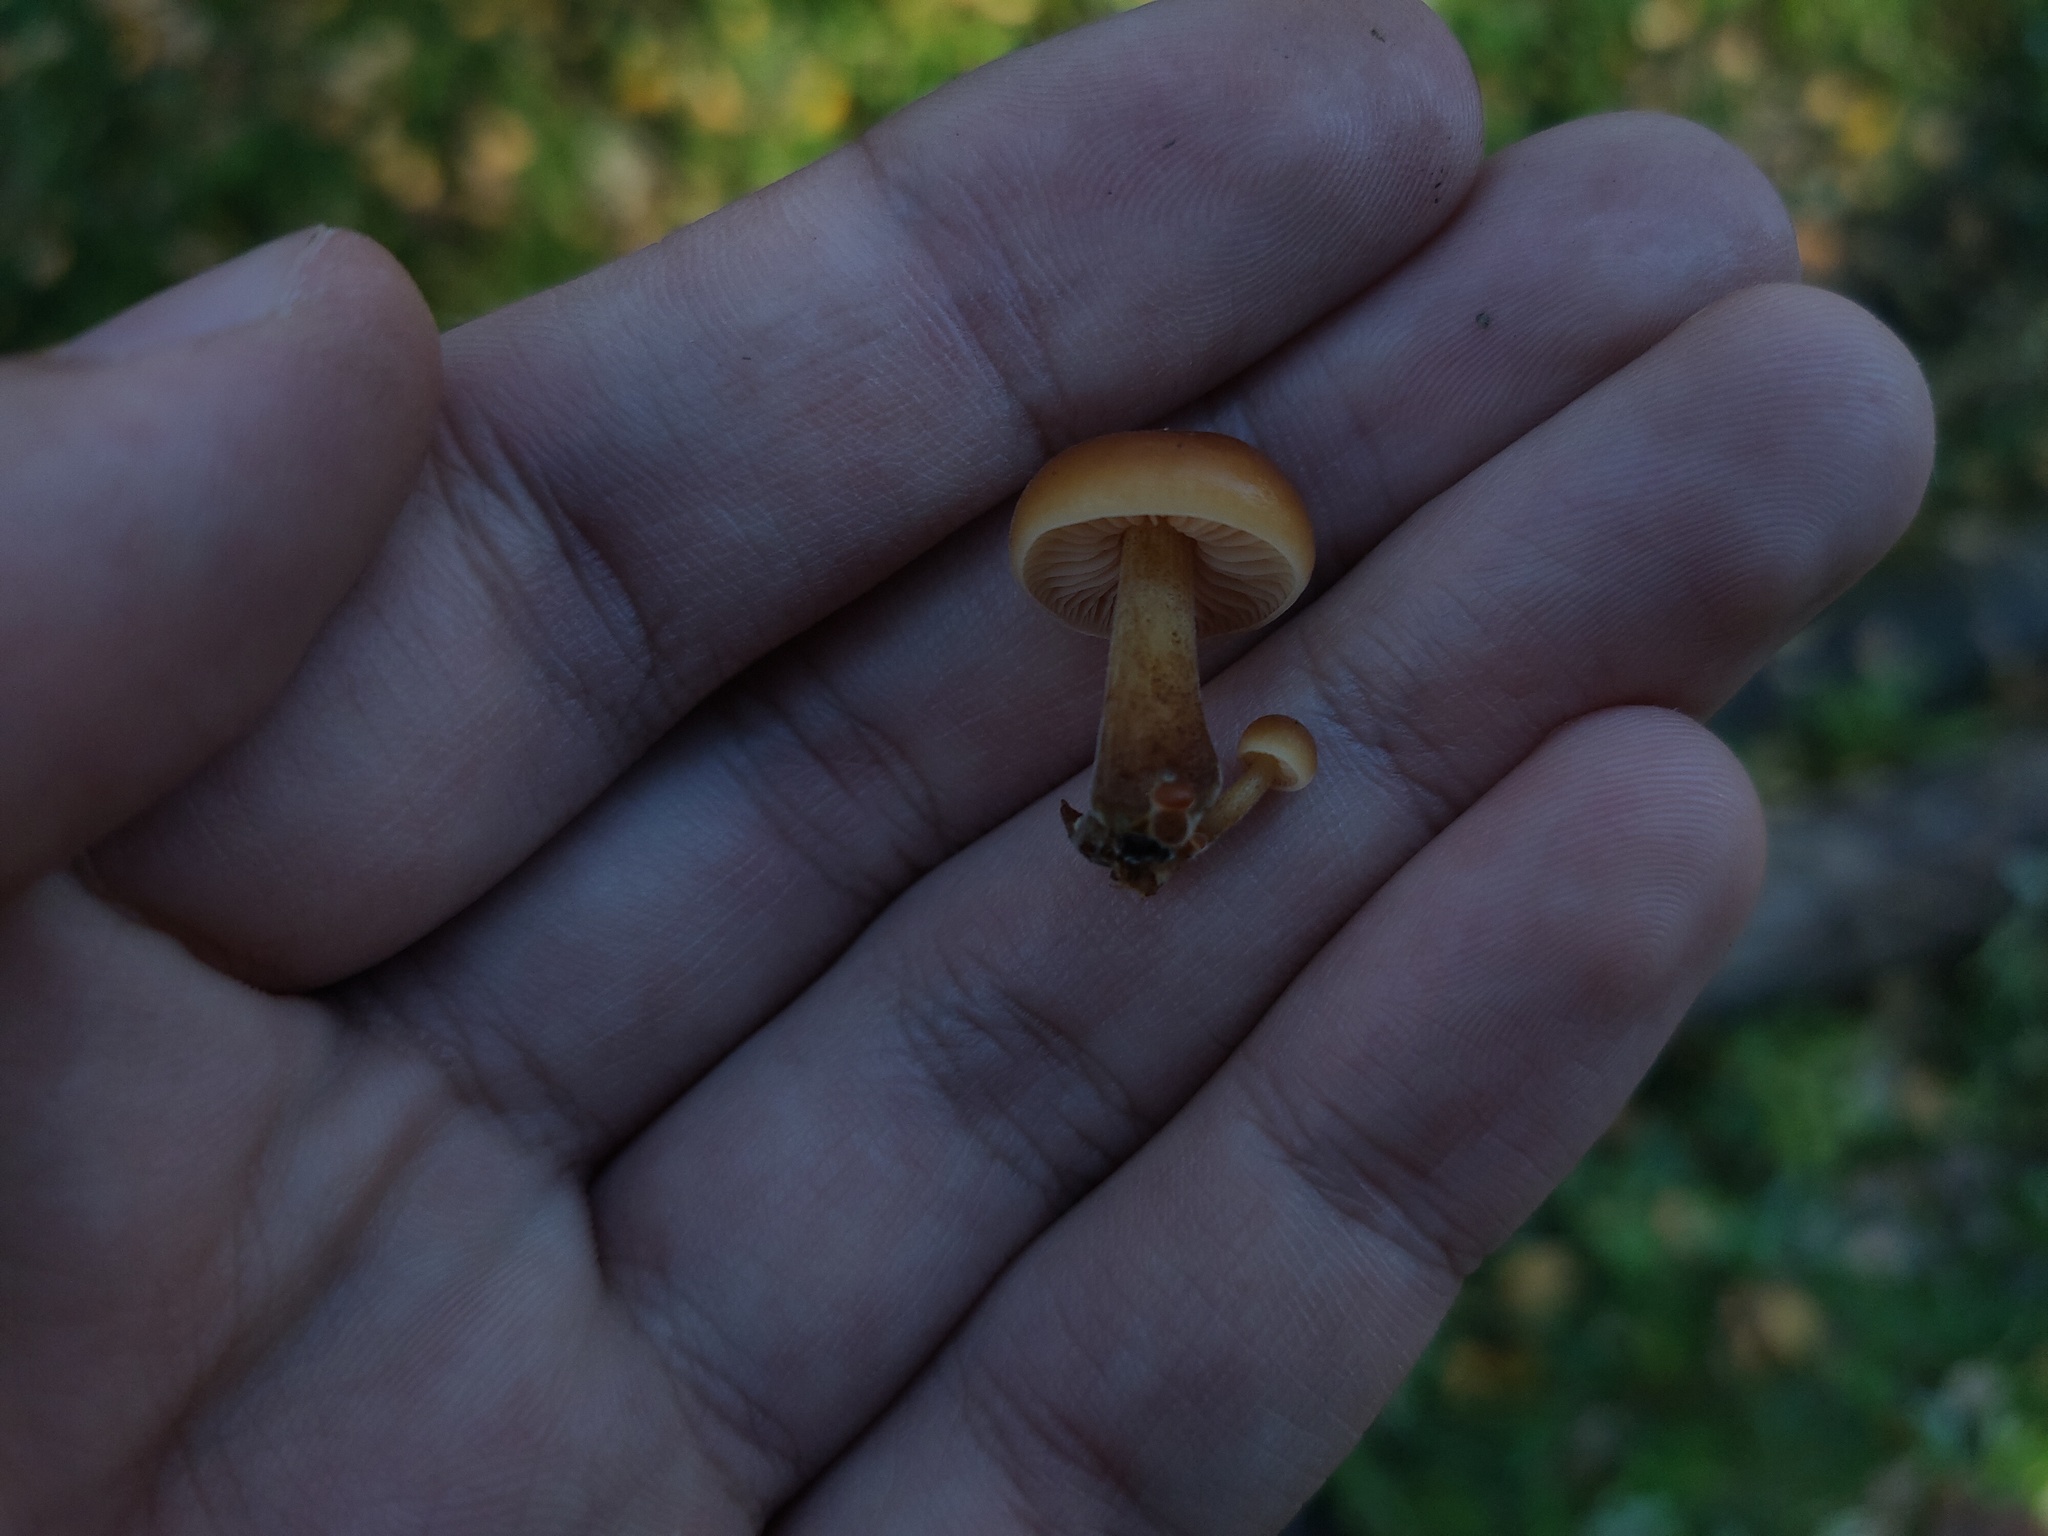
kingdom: Fungi
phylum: Basidiomycota
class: Agaricomycetes
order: Agaricales
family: Physalacriaceae
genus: Flammulina
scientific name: Flammulina
